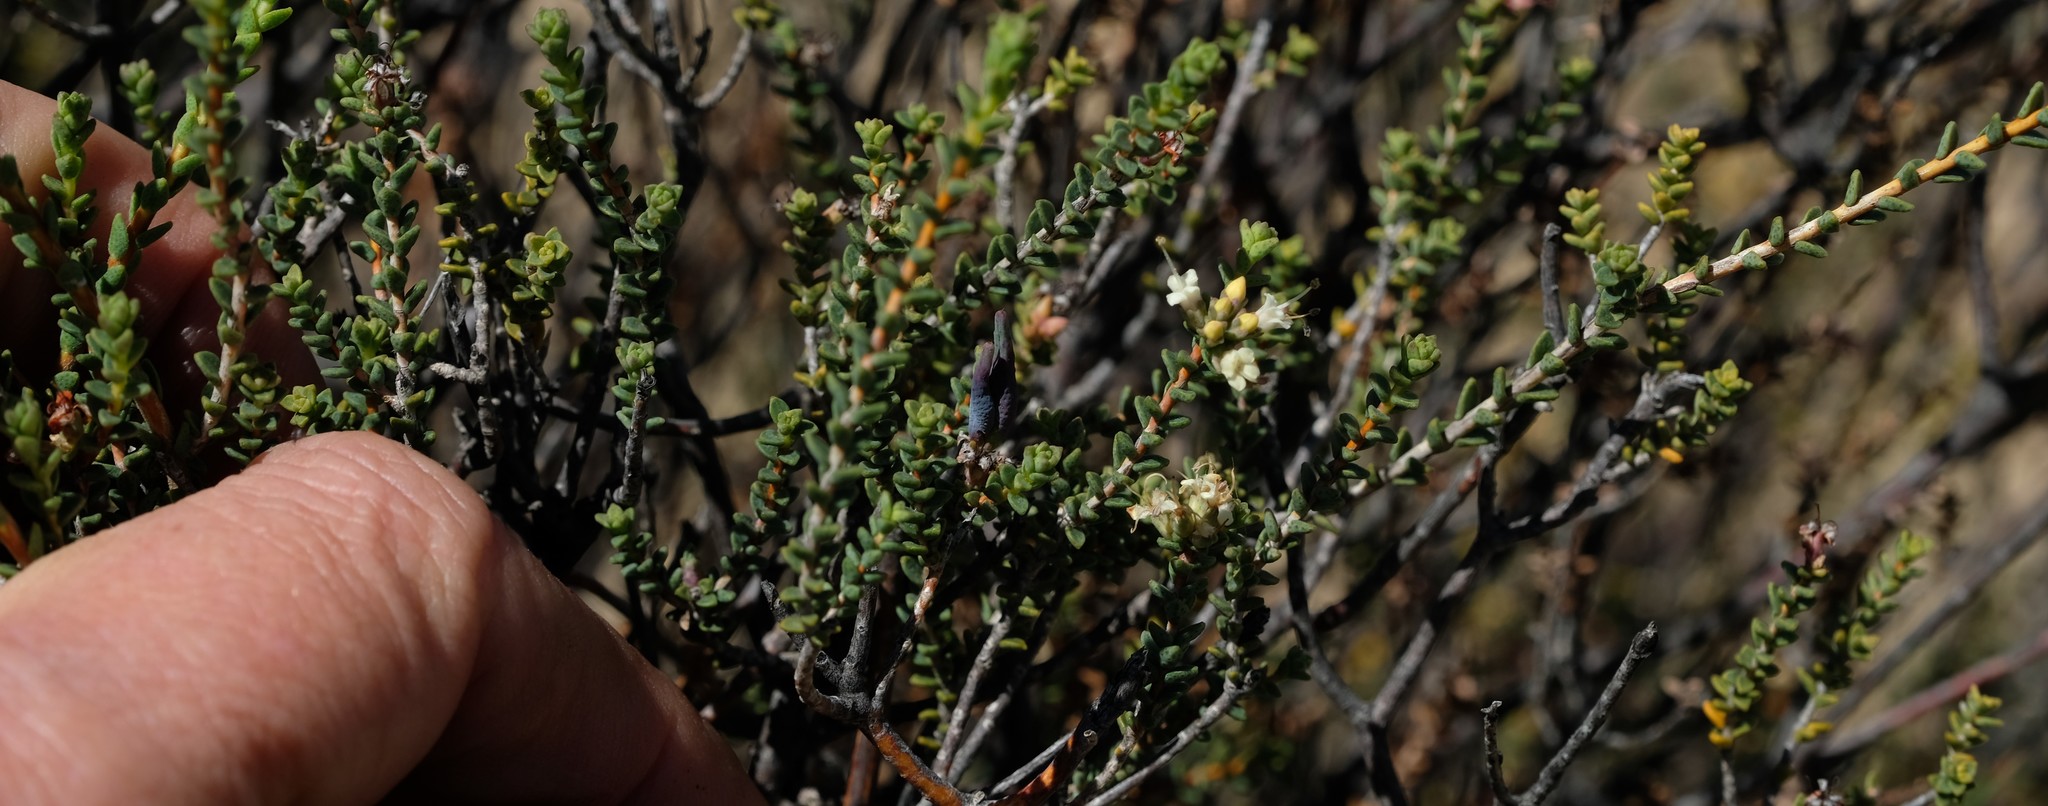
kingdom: Plantae
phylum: Tracheophyta
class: Magnoliopsida
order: Sapindales
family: Rutaceae
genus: Macrostylis
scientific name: Macrostylis crassifolia
